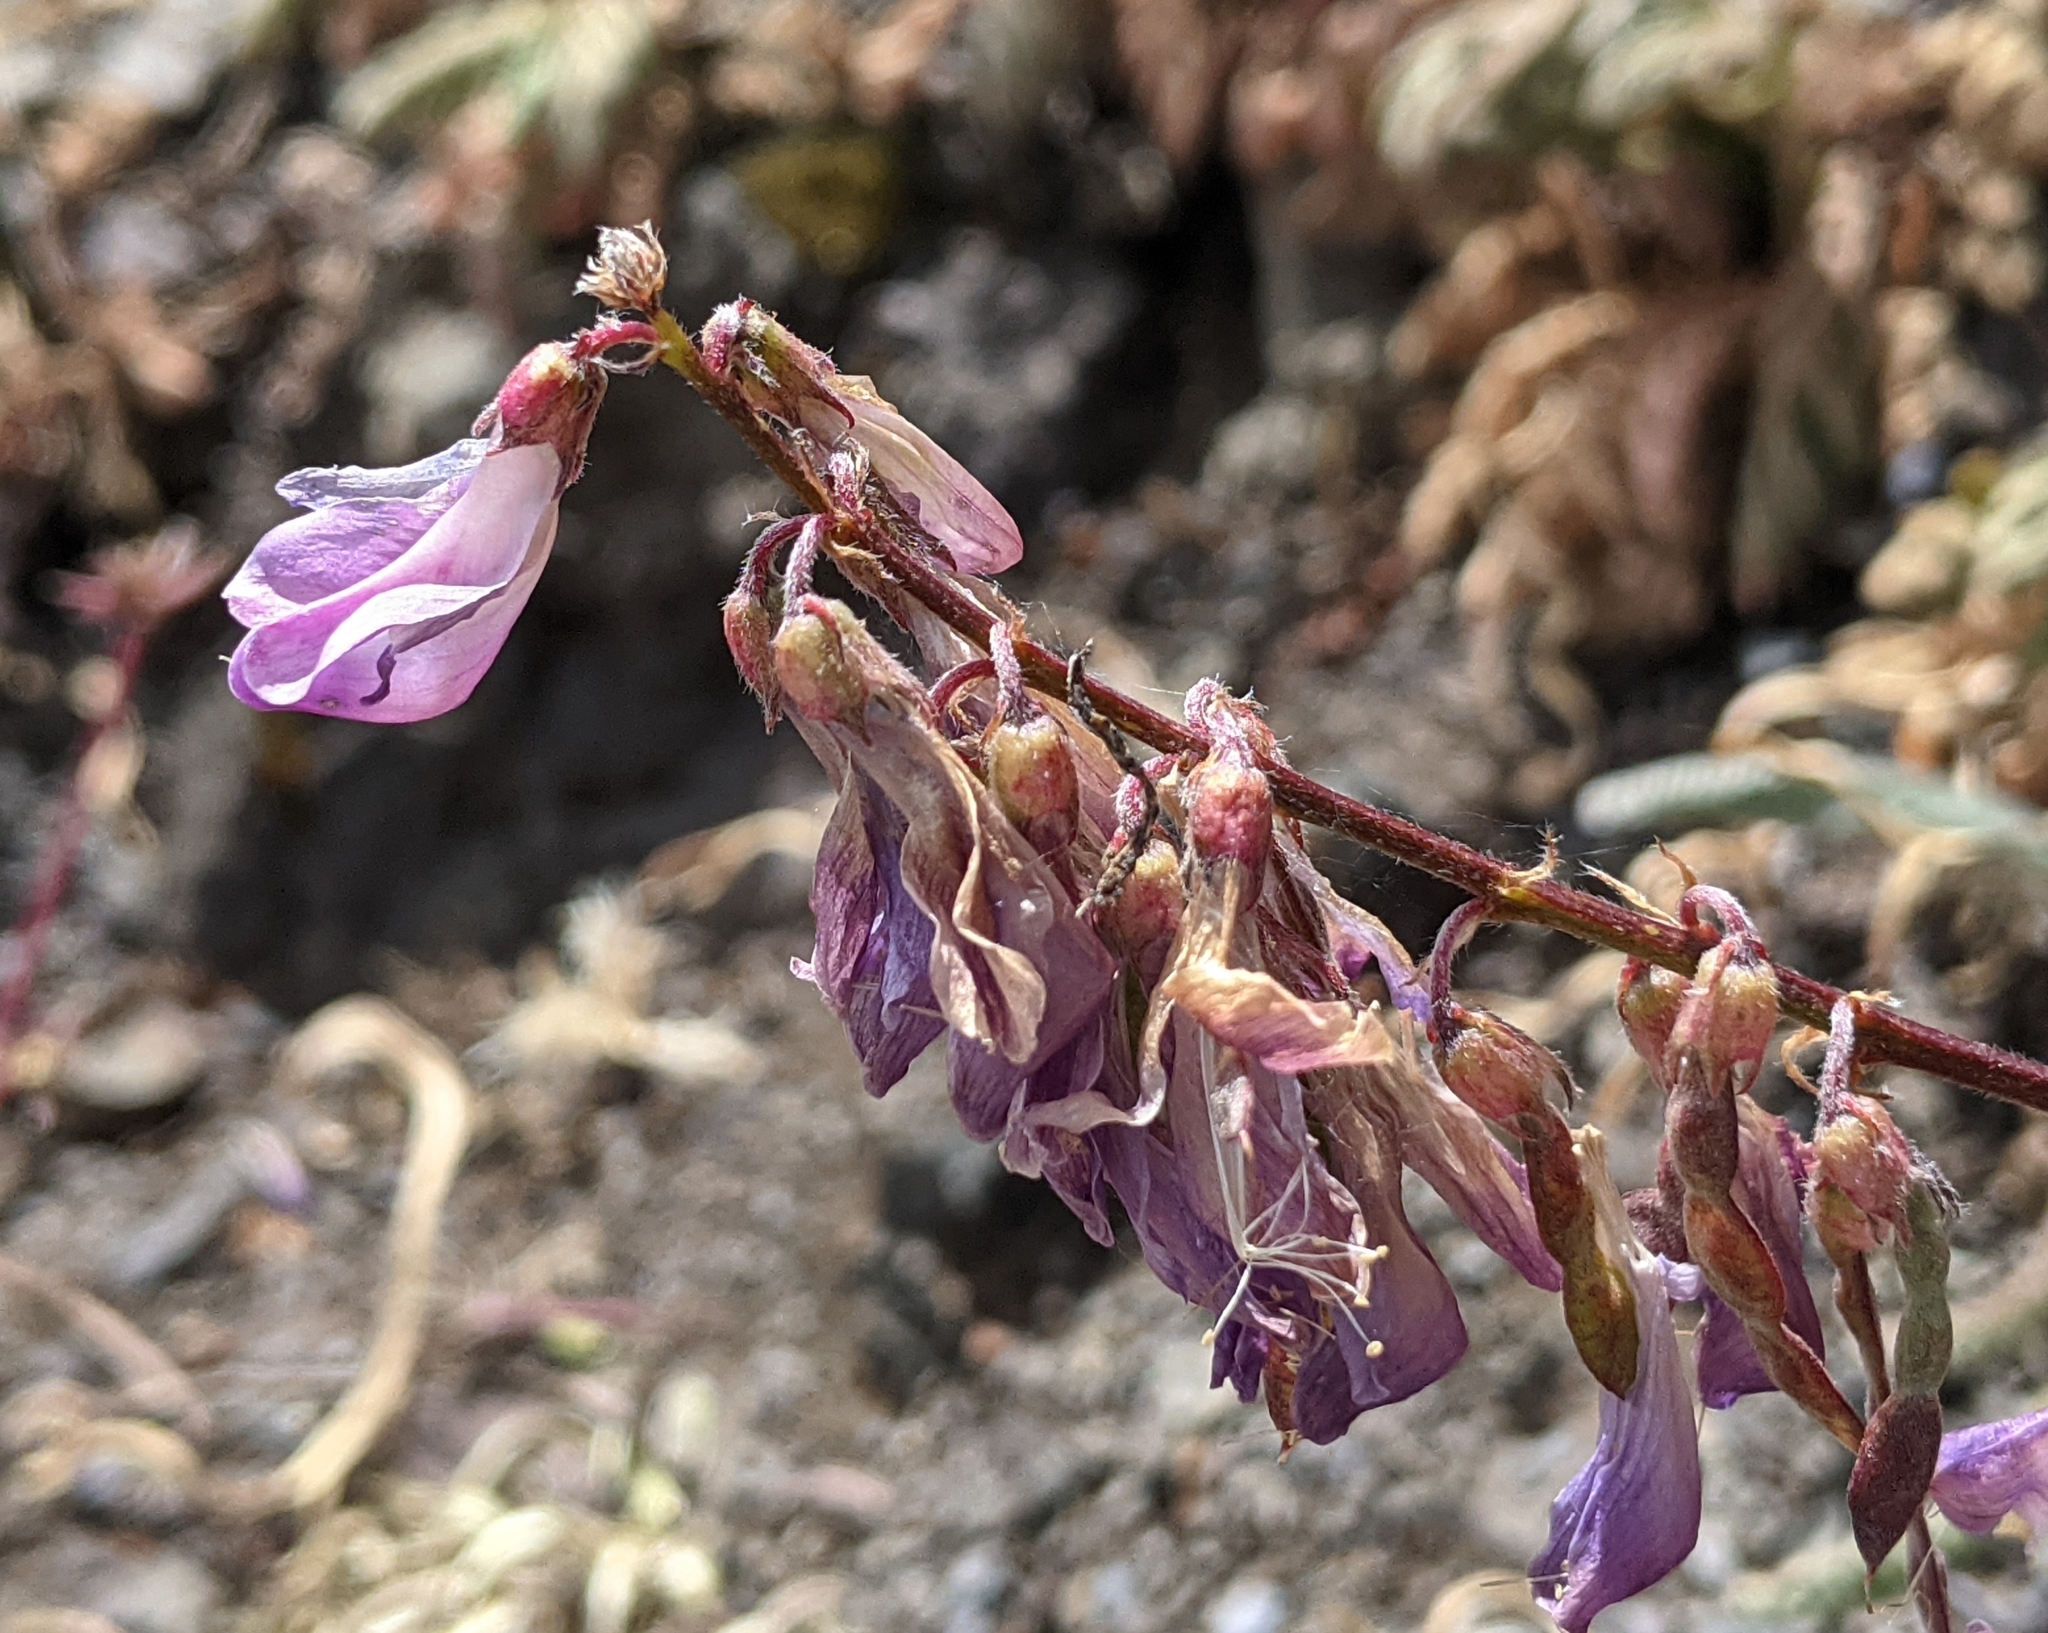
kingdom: Plantae
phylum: Tracheophyta
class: Magnoliopsida
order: Fabales
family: Fabaceae
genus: Hedysarum
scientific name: Hedysarum occidentale
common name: Western hedysarum
